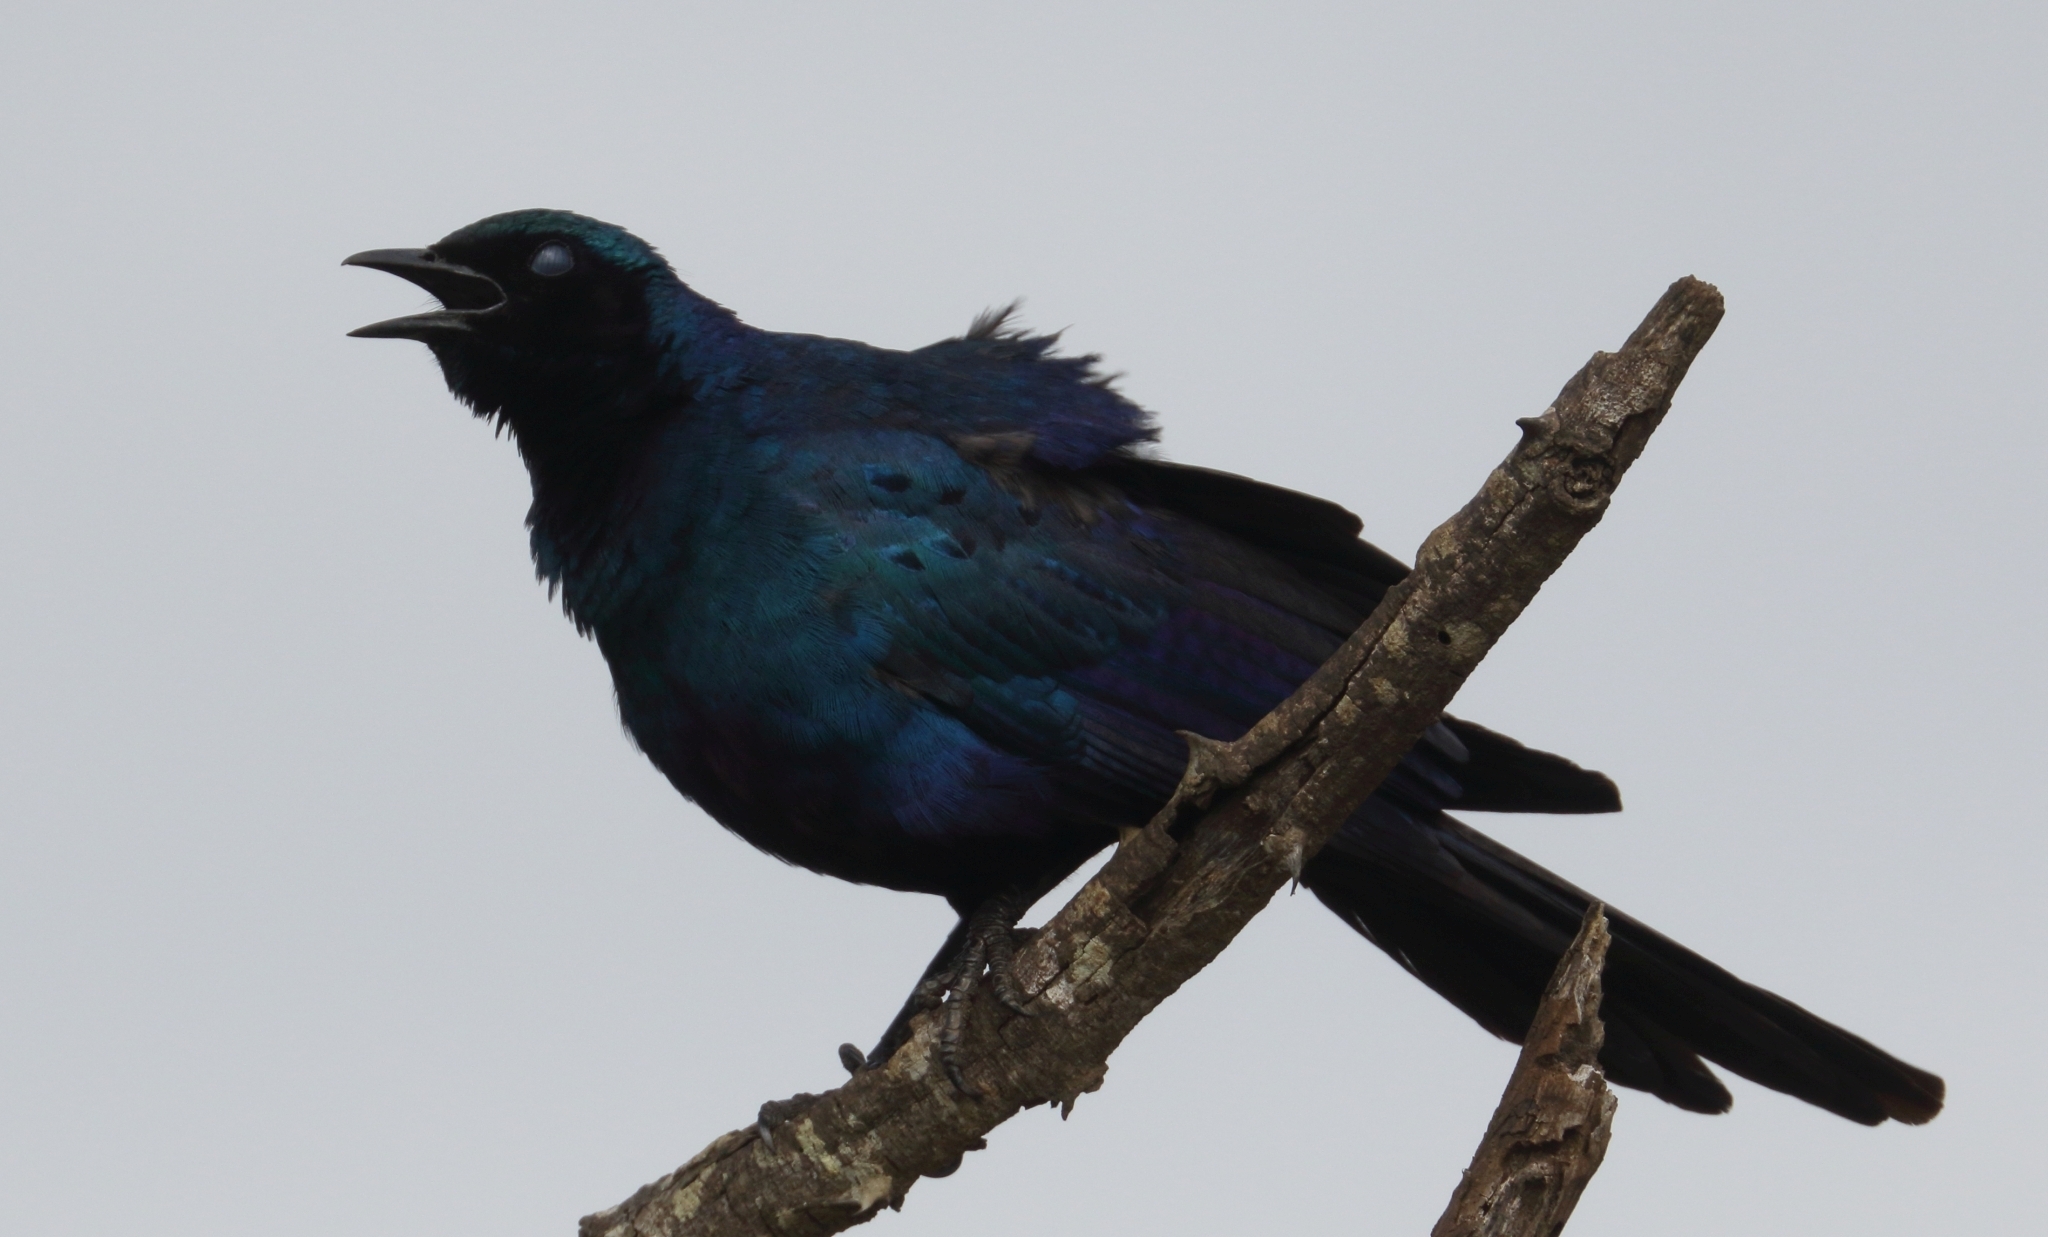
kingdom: Animalia
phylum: Chordata
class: Aves
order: Passeriformes
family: Sturnidae
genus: Lamprotornis
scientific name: Lamprotornis australis
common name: Burchell's starling
